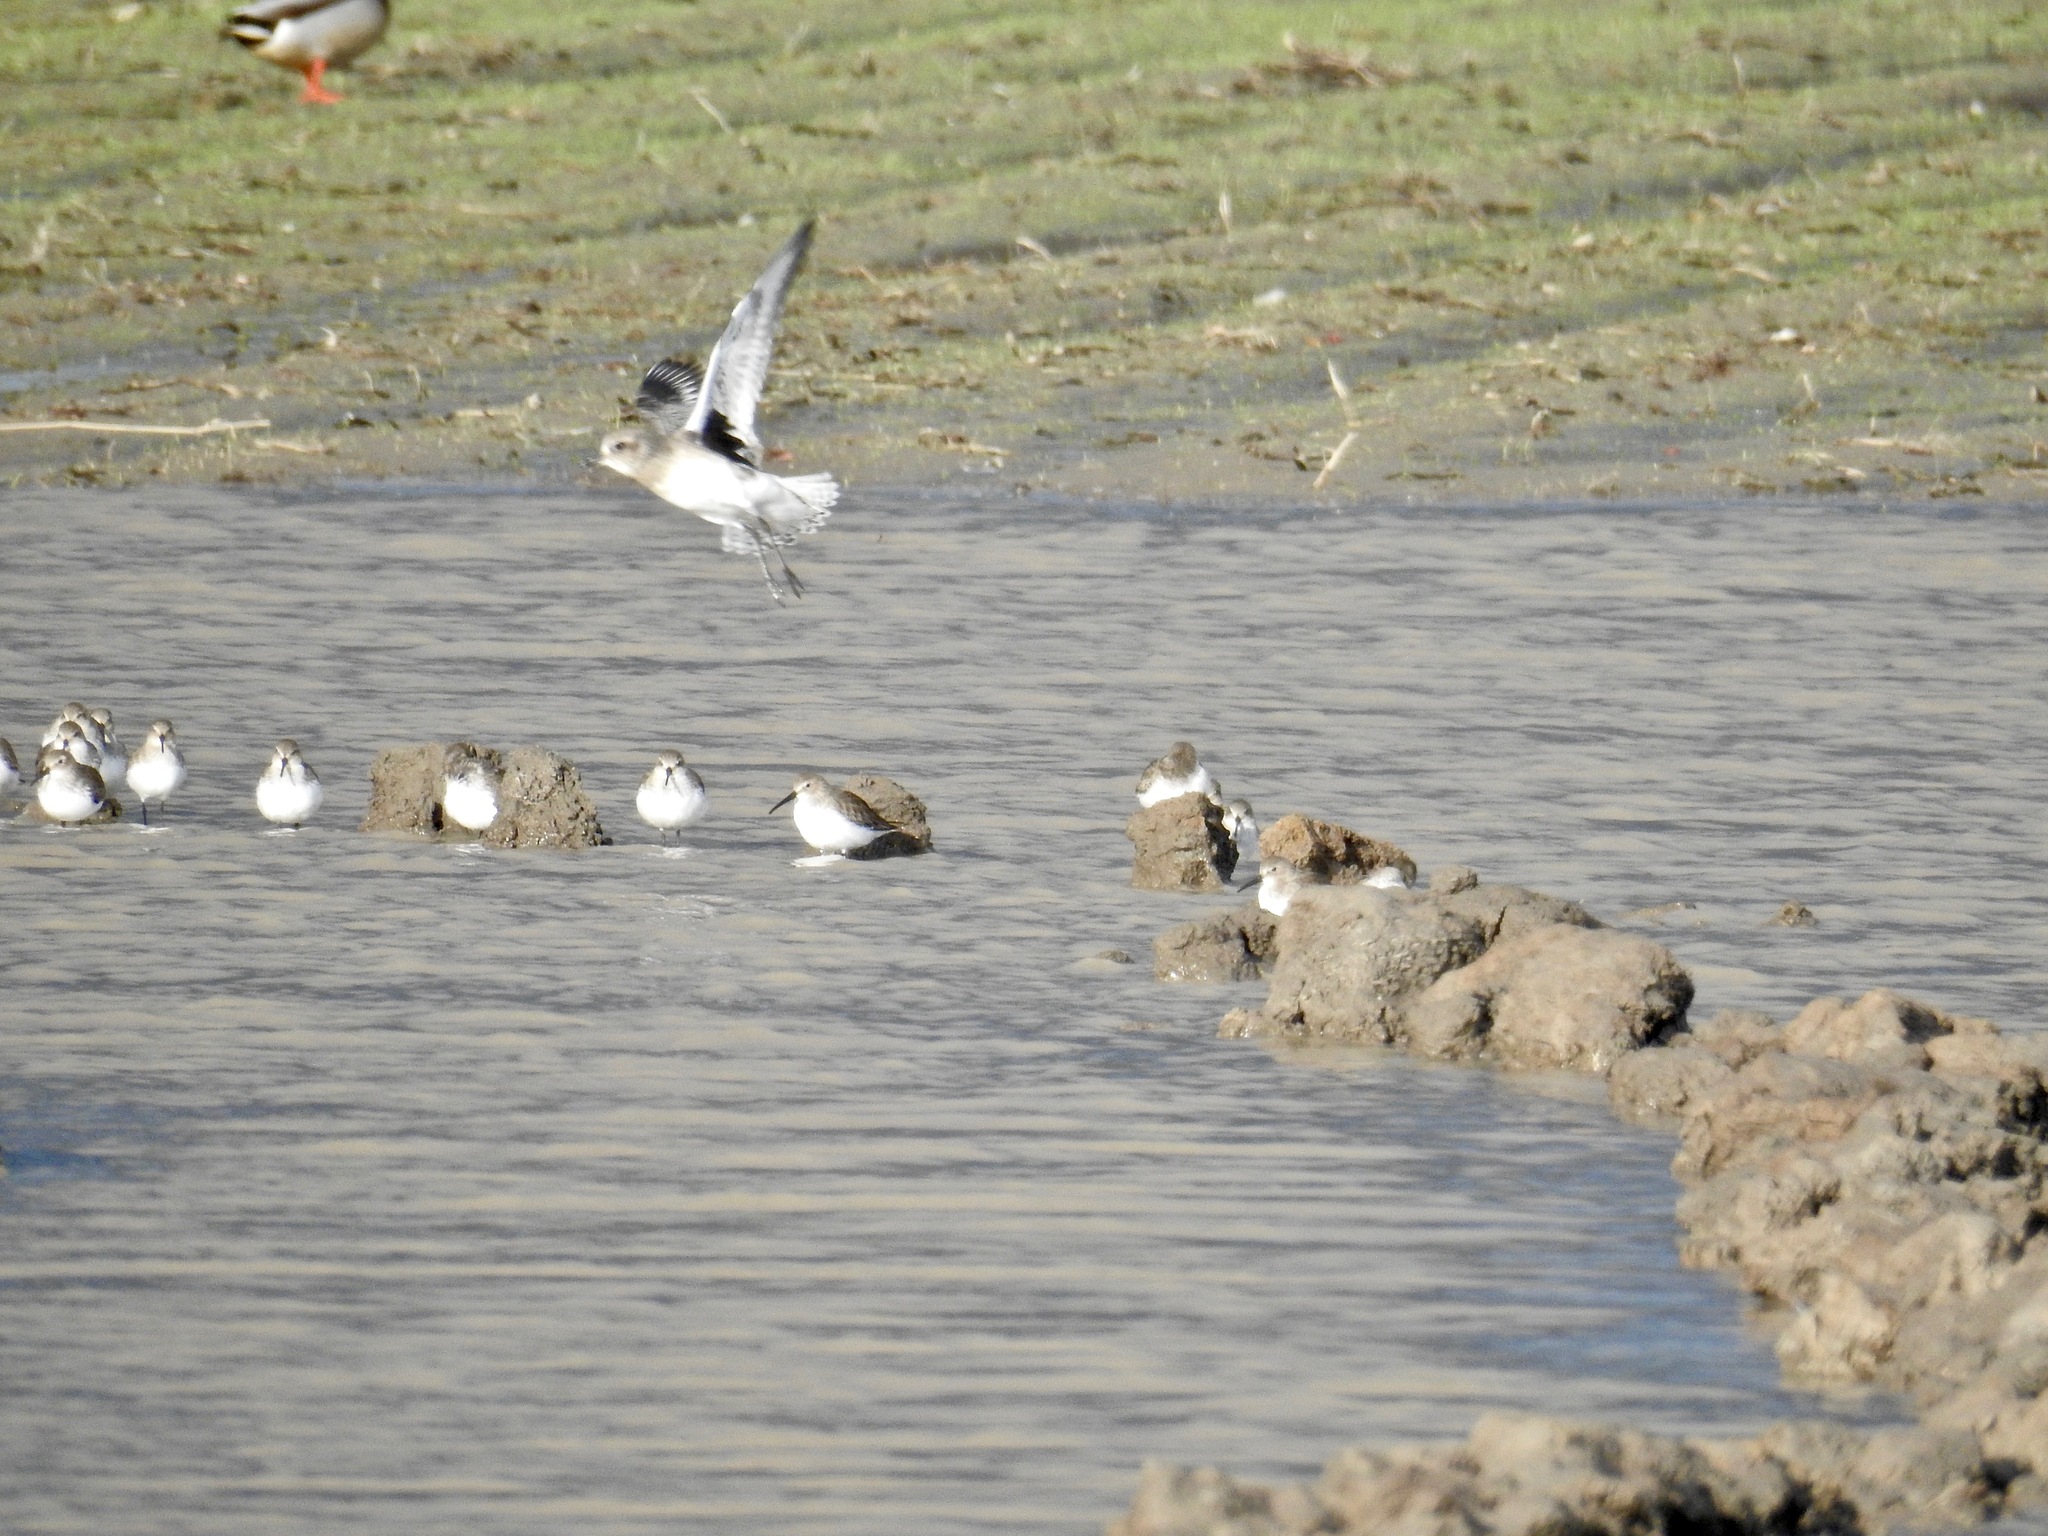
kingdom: Animalia
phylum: Chordata
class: Aves
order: Charadriiformes
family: Charadriidae
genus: Pluvialis
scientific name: Pluvialis squatarola
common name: Grey plover
